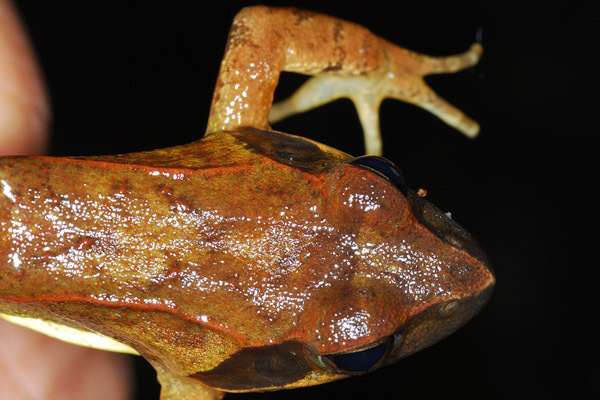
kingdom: Animalia
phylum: Chordata
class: Amphibia
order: Anura
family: Ranidae
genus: Rana
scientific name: Rana uenoi
